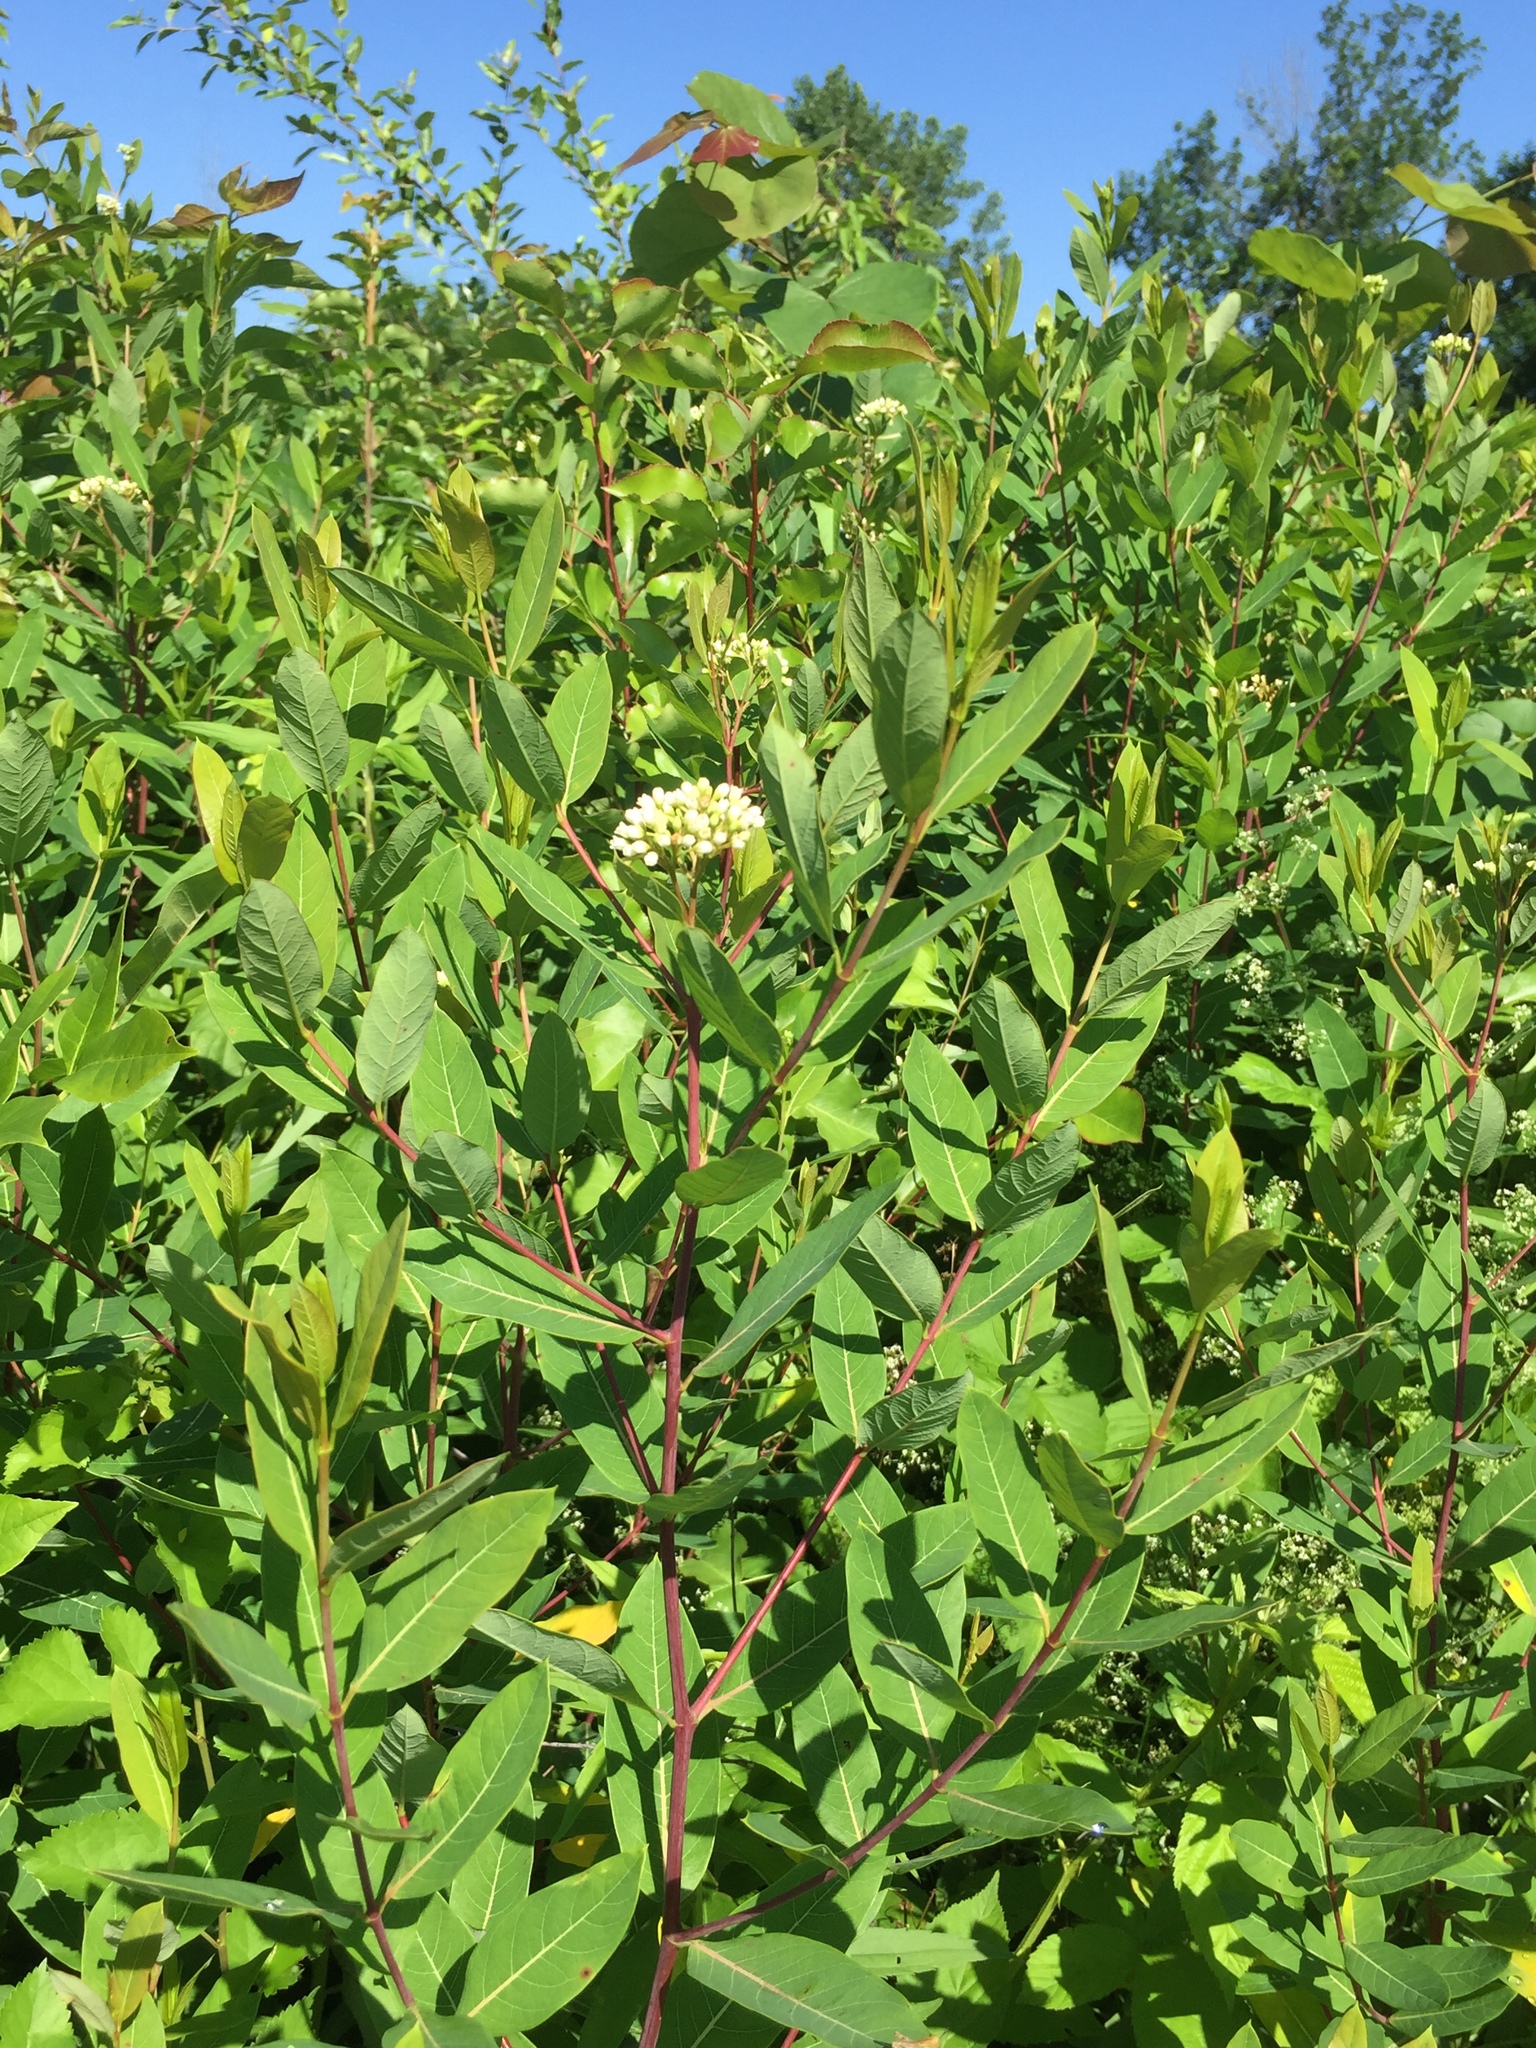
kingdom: Plantae
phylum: Tracheophyta
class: Magnoliopsida
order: Gentianales
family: Apocynaceae
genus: Apocynum
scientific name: Apocynum cannabinum
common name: Hemp dogbane
